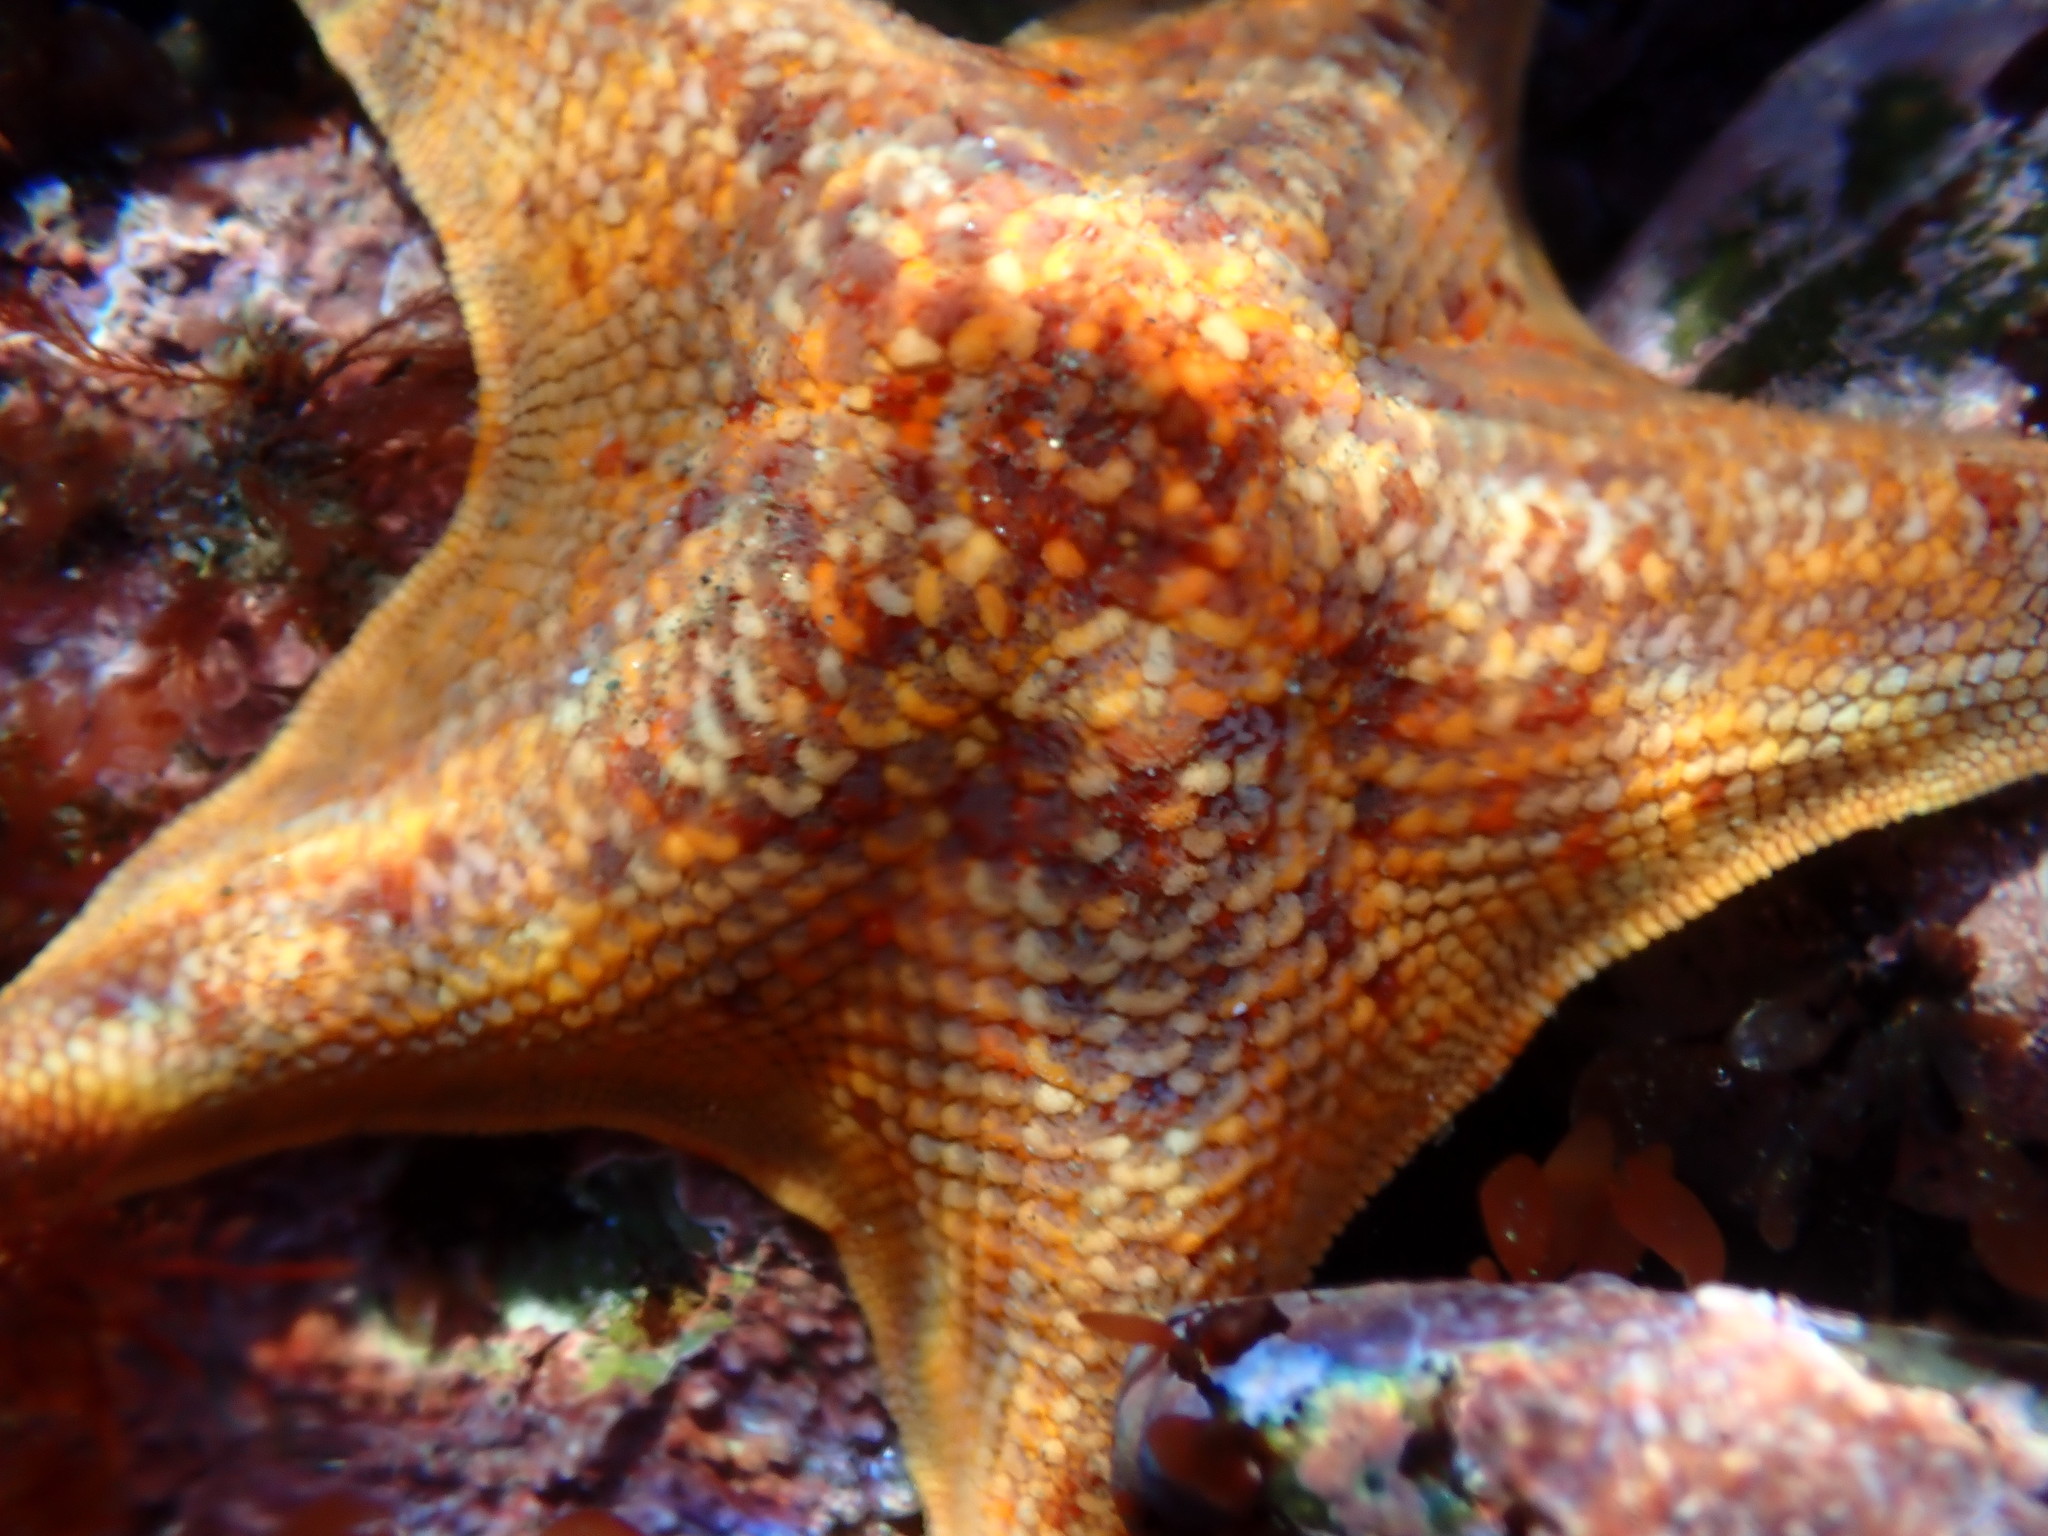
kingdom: Animalia
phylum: Echinodermata
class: Asteroidea
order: Valvatida
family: Asterinidae
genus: Patiria
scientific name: Patiria miniata
